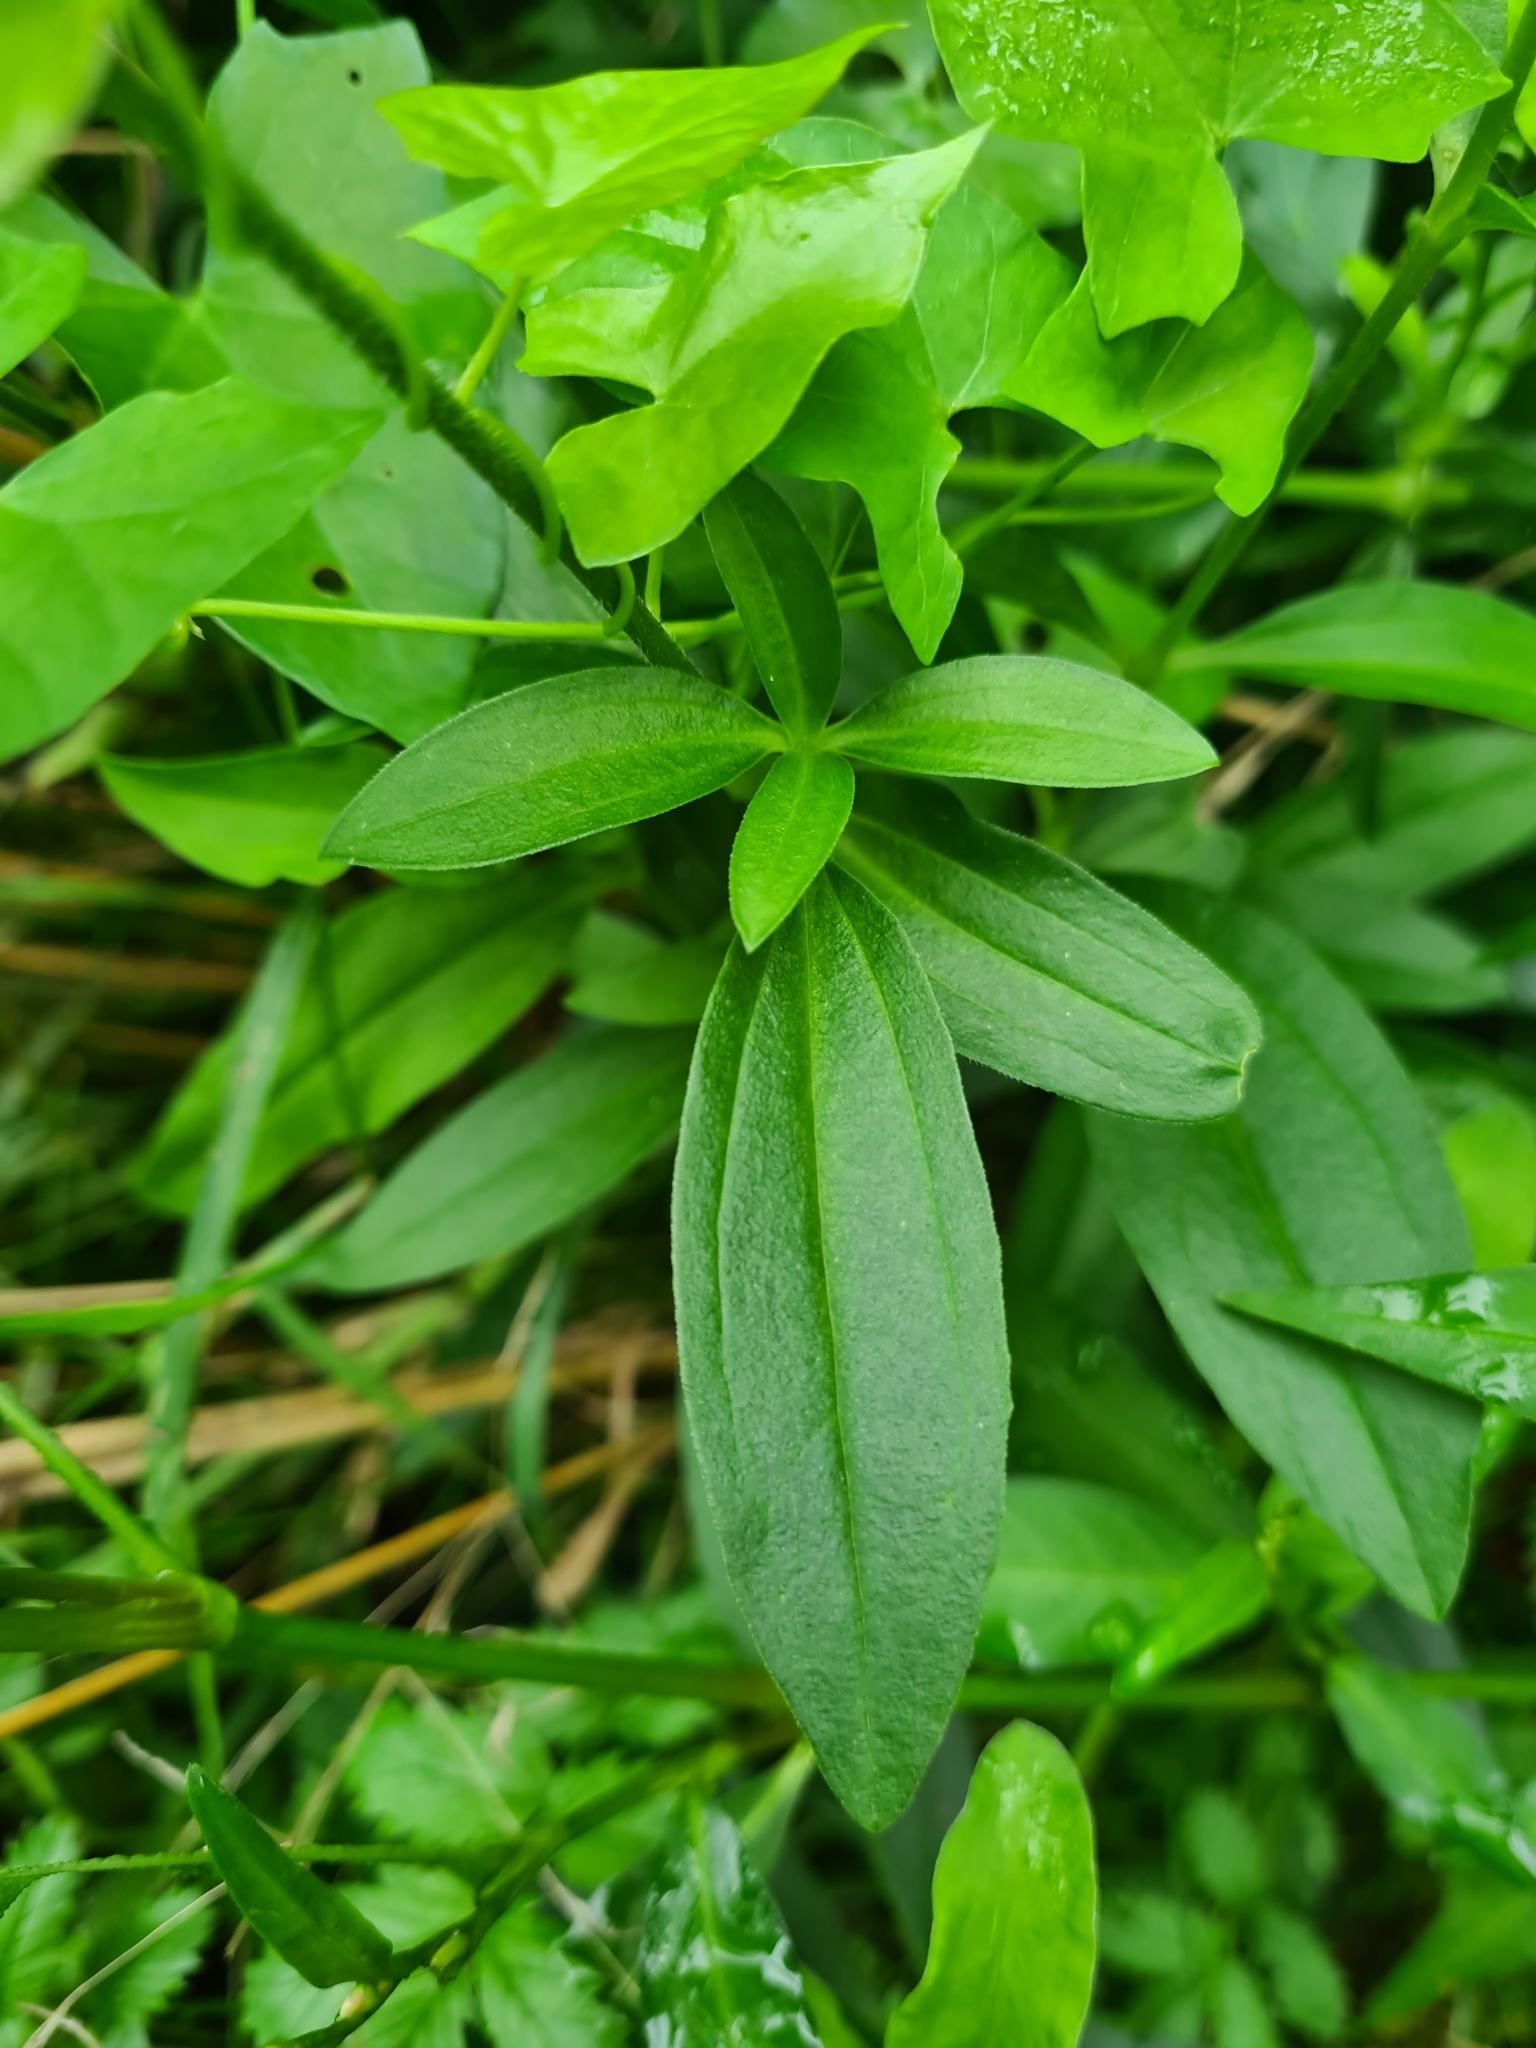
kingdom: Plantae
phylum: Tracheophyta
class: Magnoliopsida
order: Caryophyllales
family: Caryophyllaceae
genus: Saponaria
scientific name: Saponaria officinalis
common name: Soapwort
